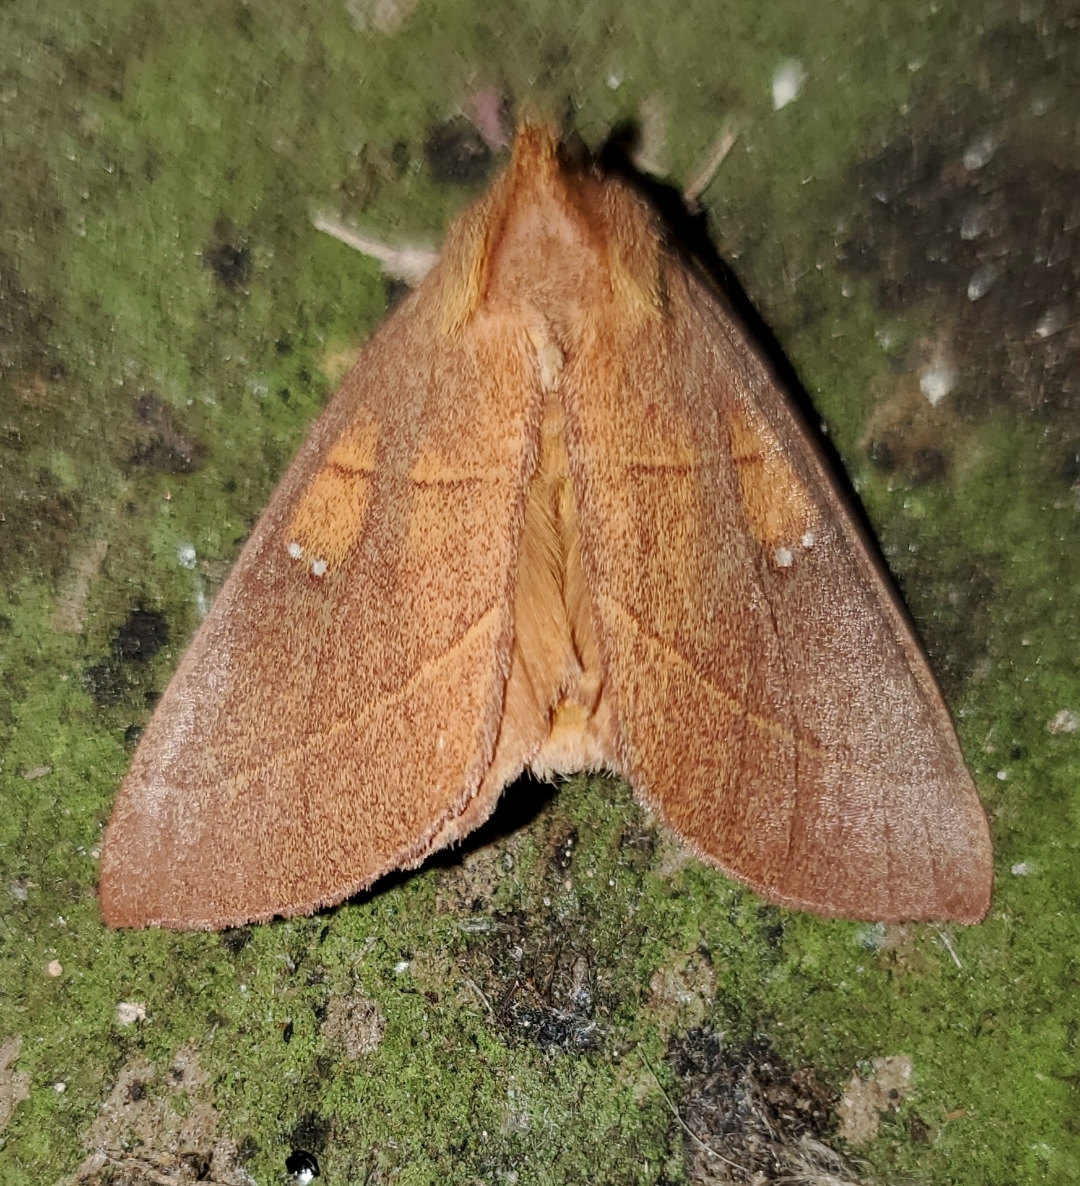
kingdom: Animalia
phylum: Arthropoda
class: Insecta
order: Lepidoptera
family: Notodontidae
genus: Nadata
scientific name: Nadata gibbosa
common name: White-dotted prominent
